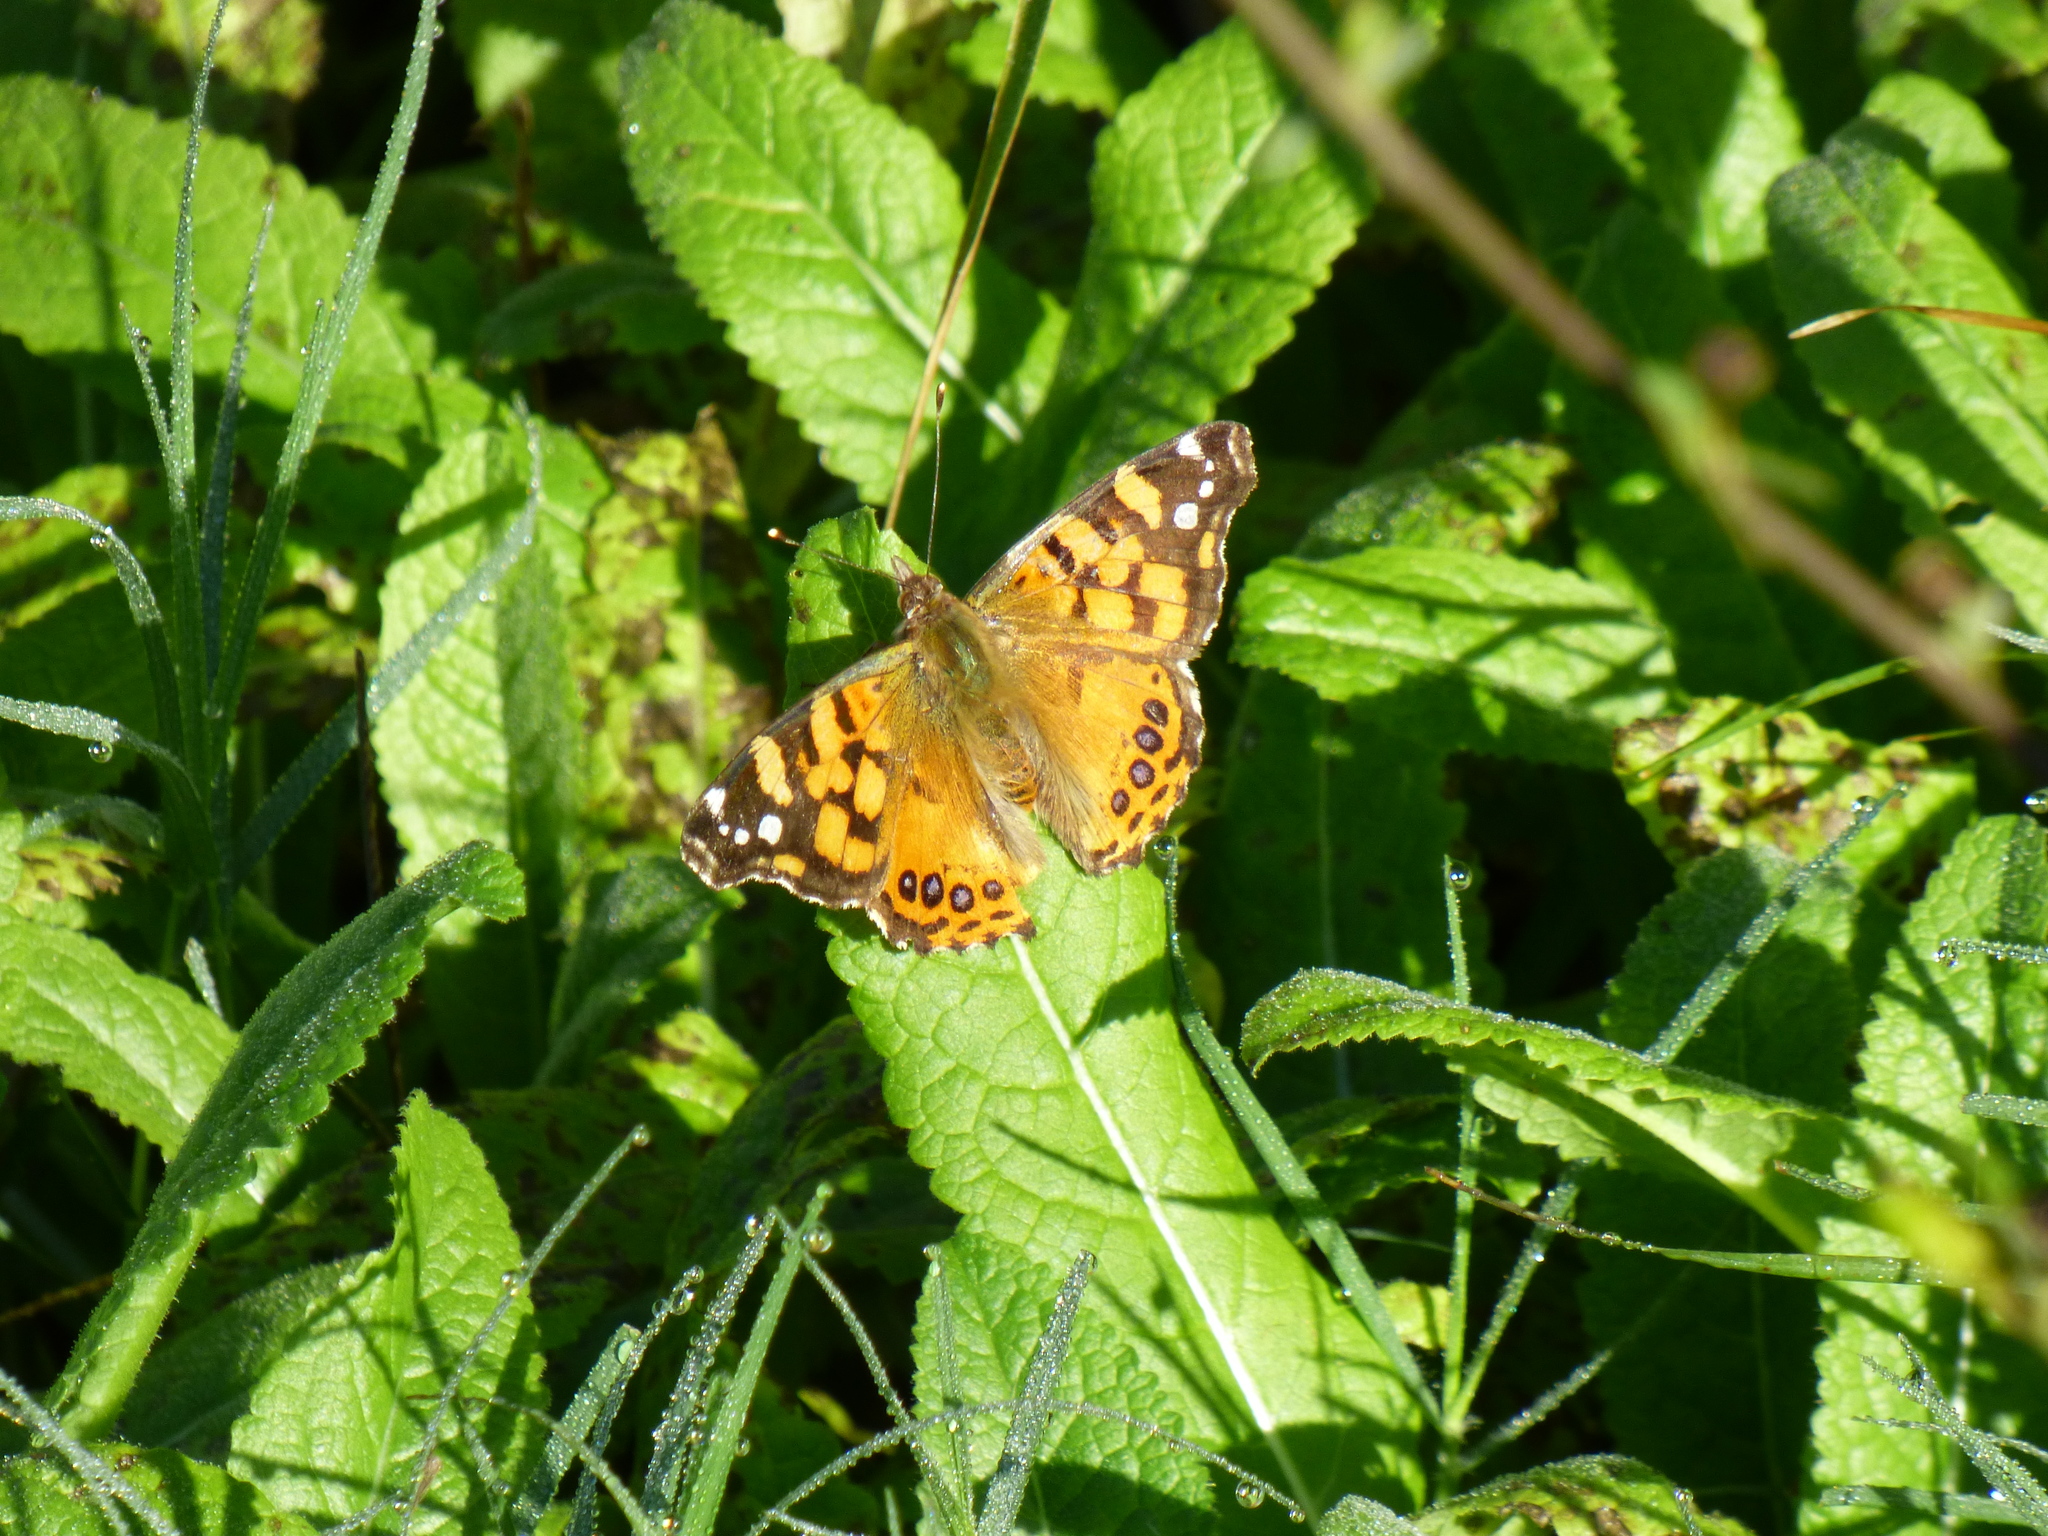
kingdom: Animalia
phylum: Arthropoda
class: Insecta
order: Lepidoptera
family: Nymphalidae
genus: Vanessa
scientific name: Vanessa carye
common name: Subtropical lady
